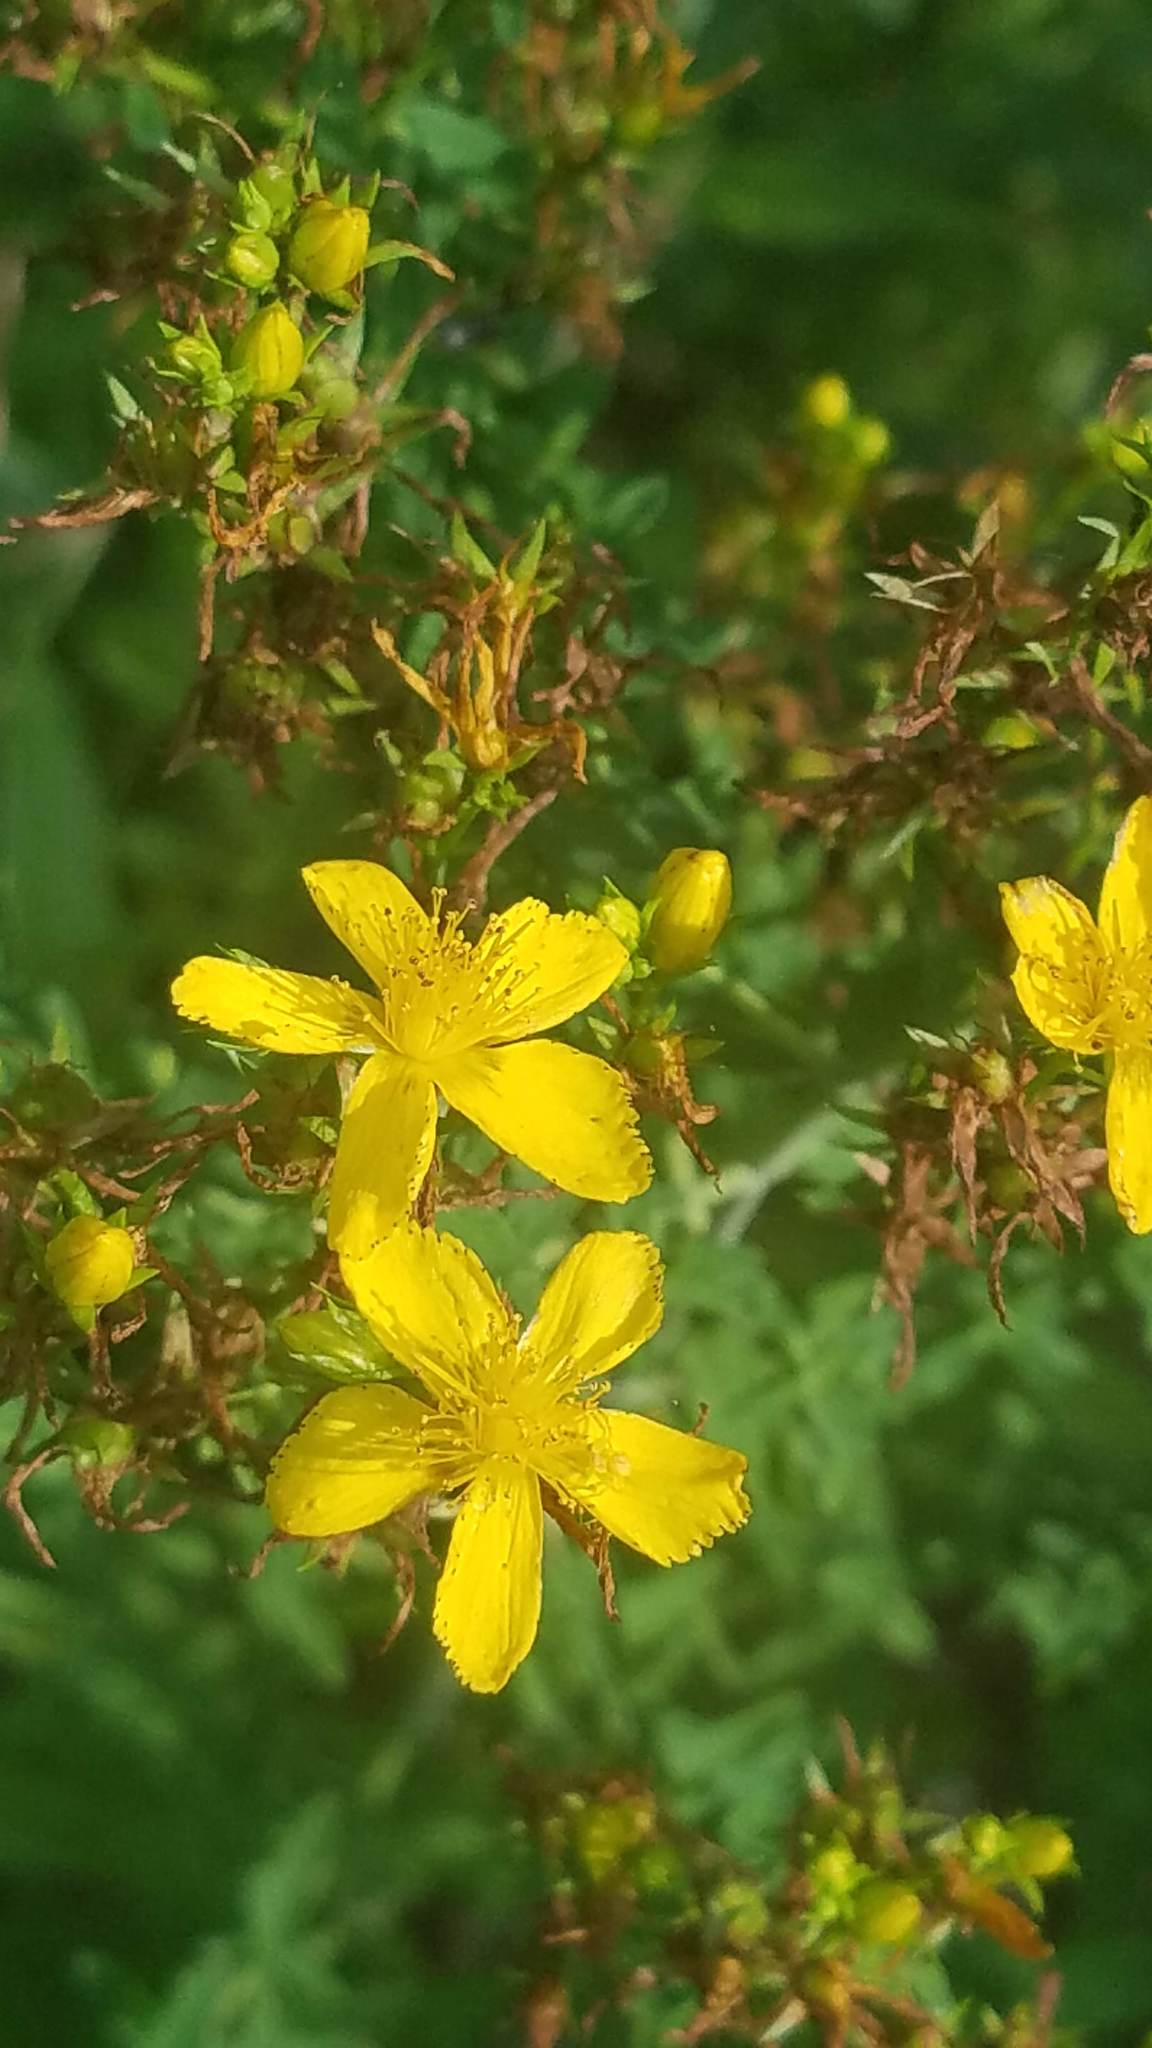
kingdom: Plantae
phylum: Tracheophyta
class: Magnoliopsida
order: Malpighiales
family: Hypericaceae
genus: Hypericum
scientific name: Hypericum perforatum
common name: Common st. johnswort
